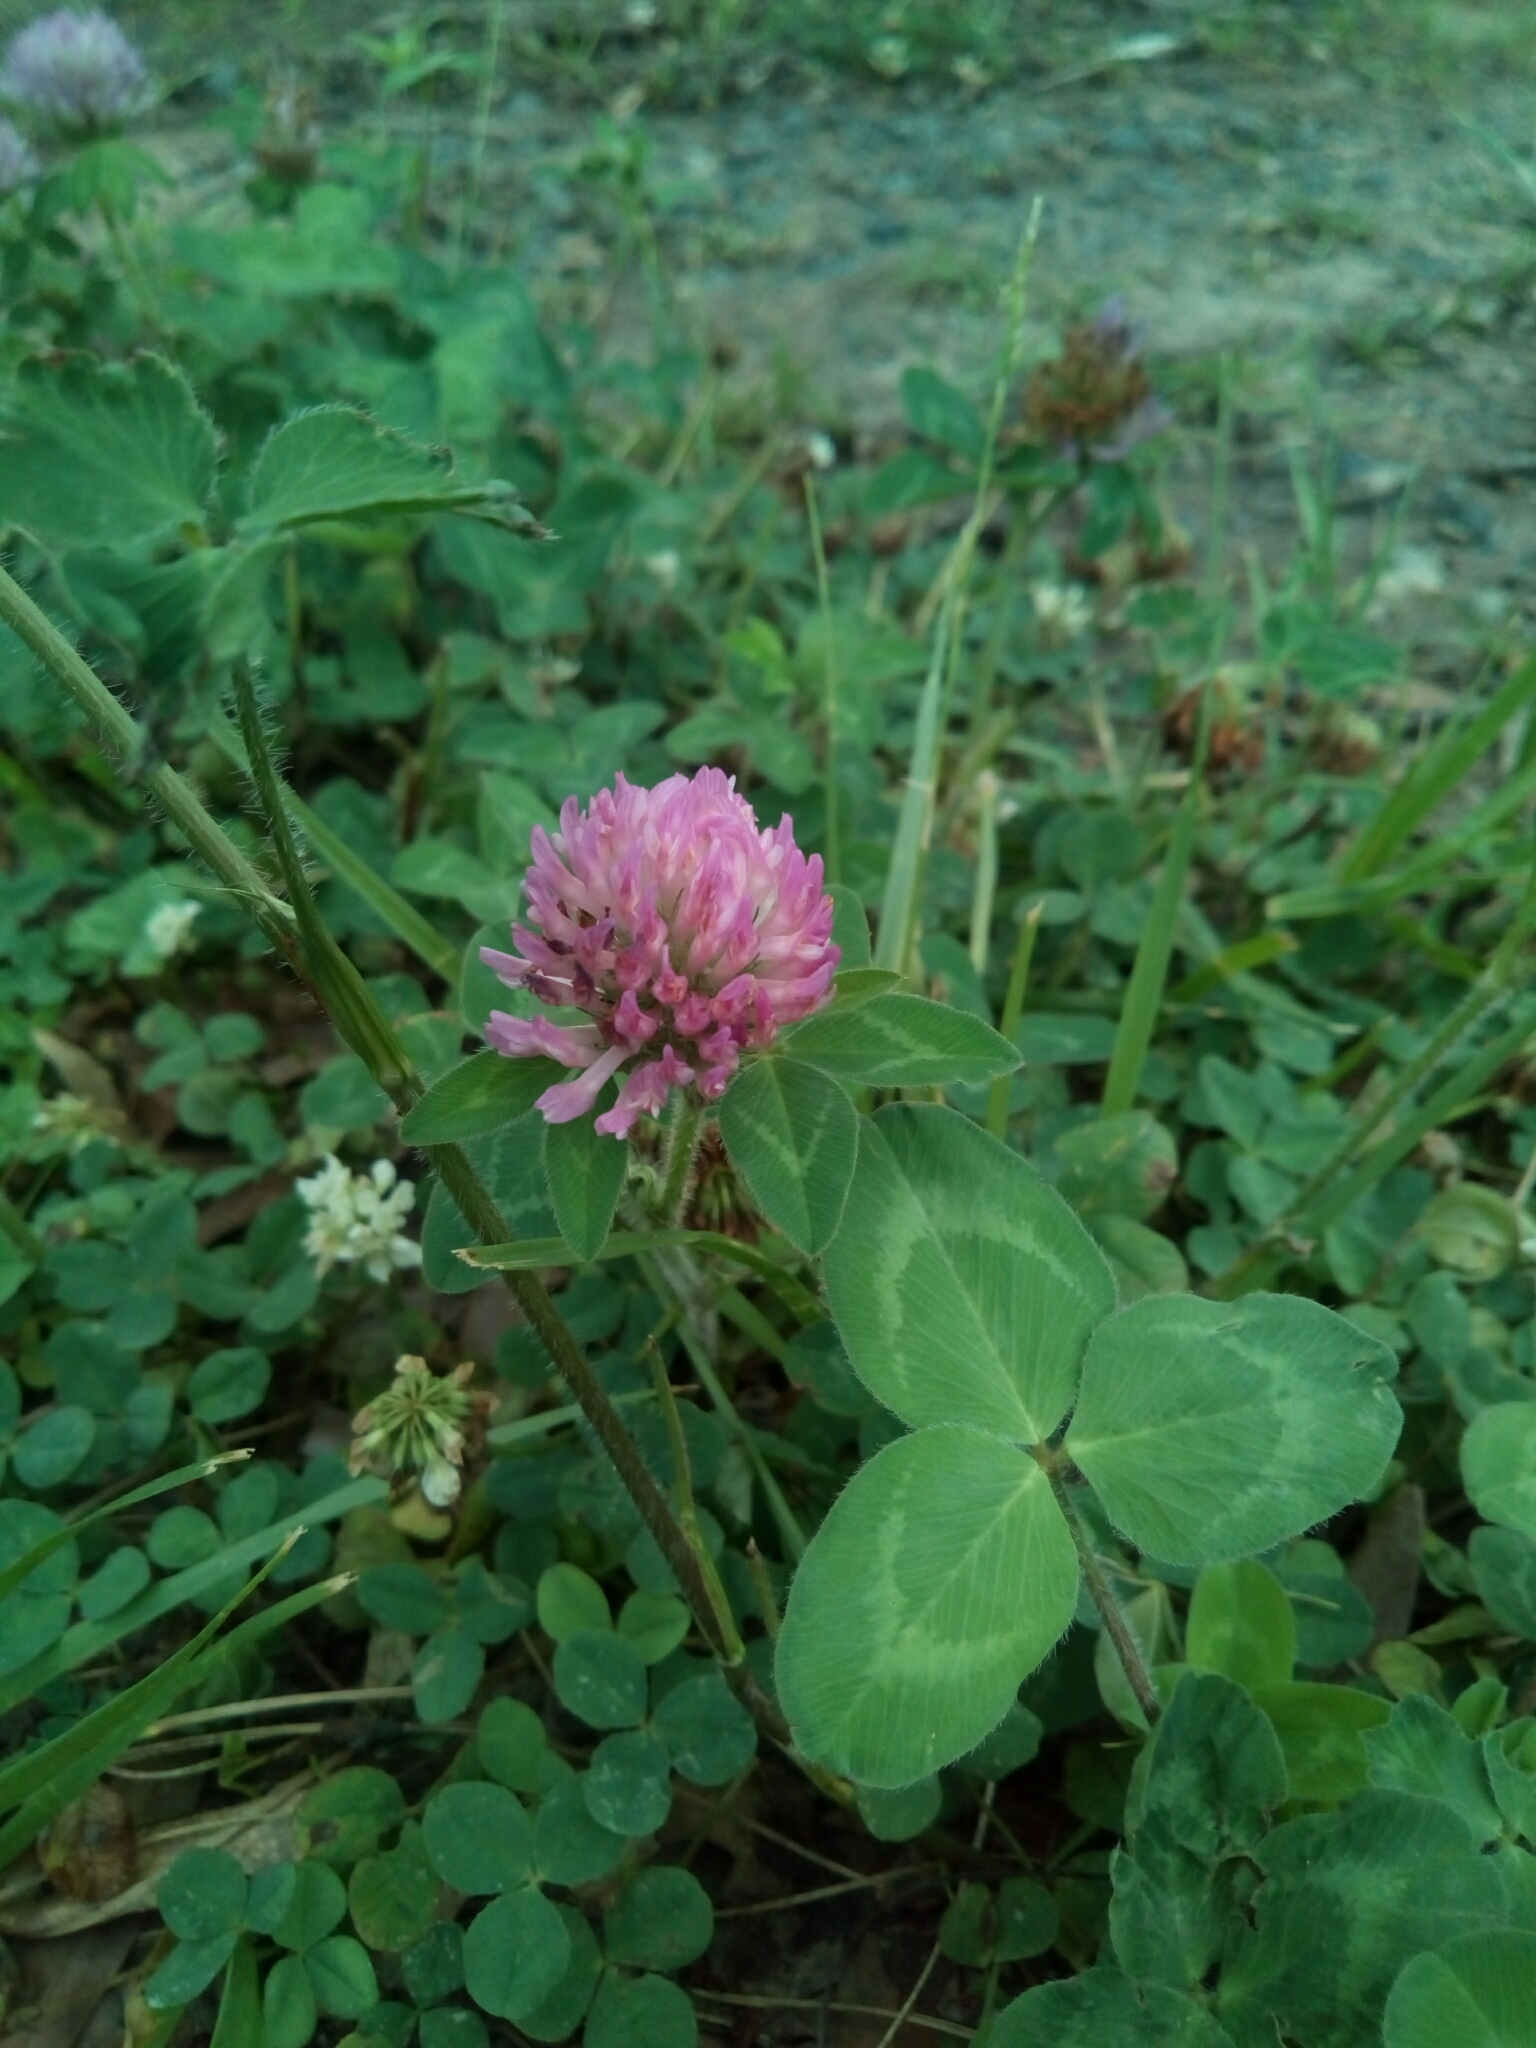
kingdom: Plantae
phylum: Tracheophyta
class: Magnoliopsida
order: Fabales
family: Fabaceae
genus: Trifolium
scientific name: Trifolium pratense
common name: Red clover
